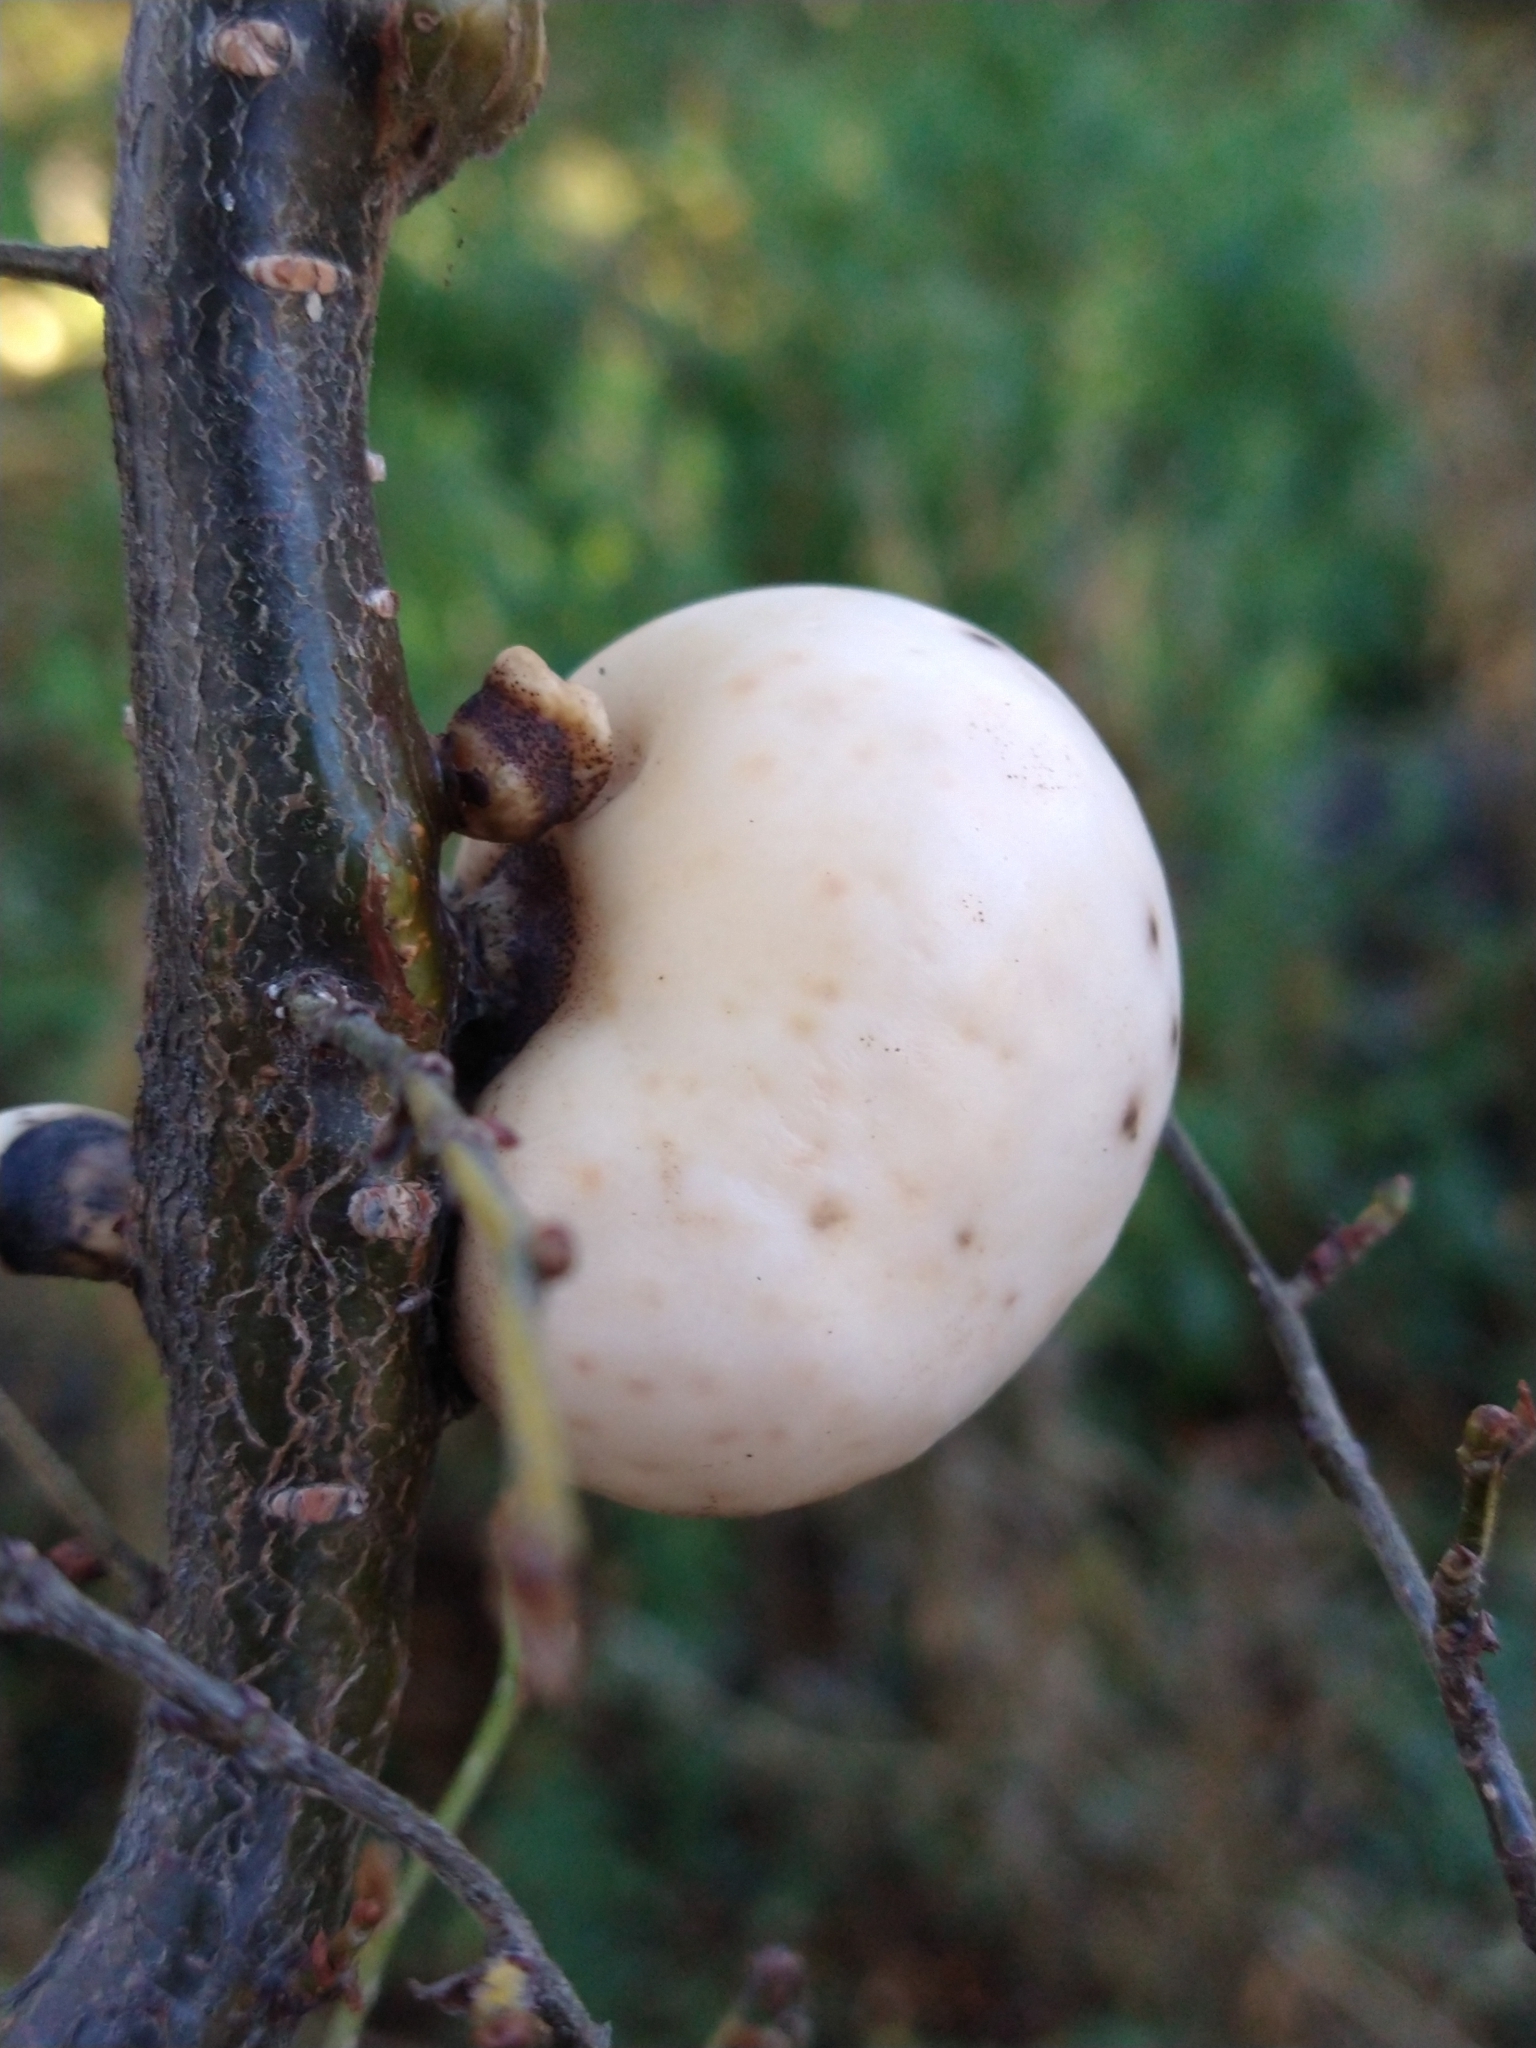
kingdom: Fungi
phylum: Ascomycota
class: Leotiomycetes
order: Cyttariales
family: Cyttariaceae
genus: Cyttaria
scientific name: Cyttaria darwinii
